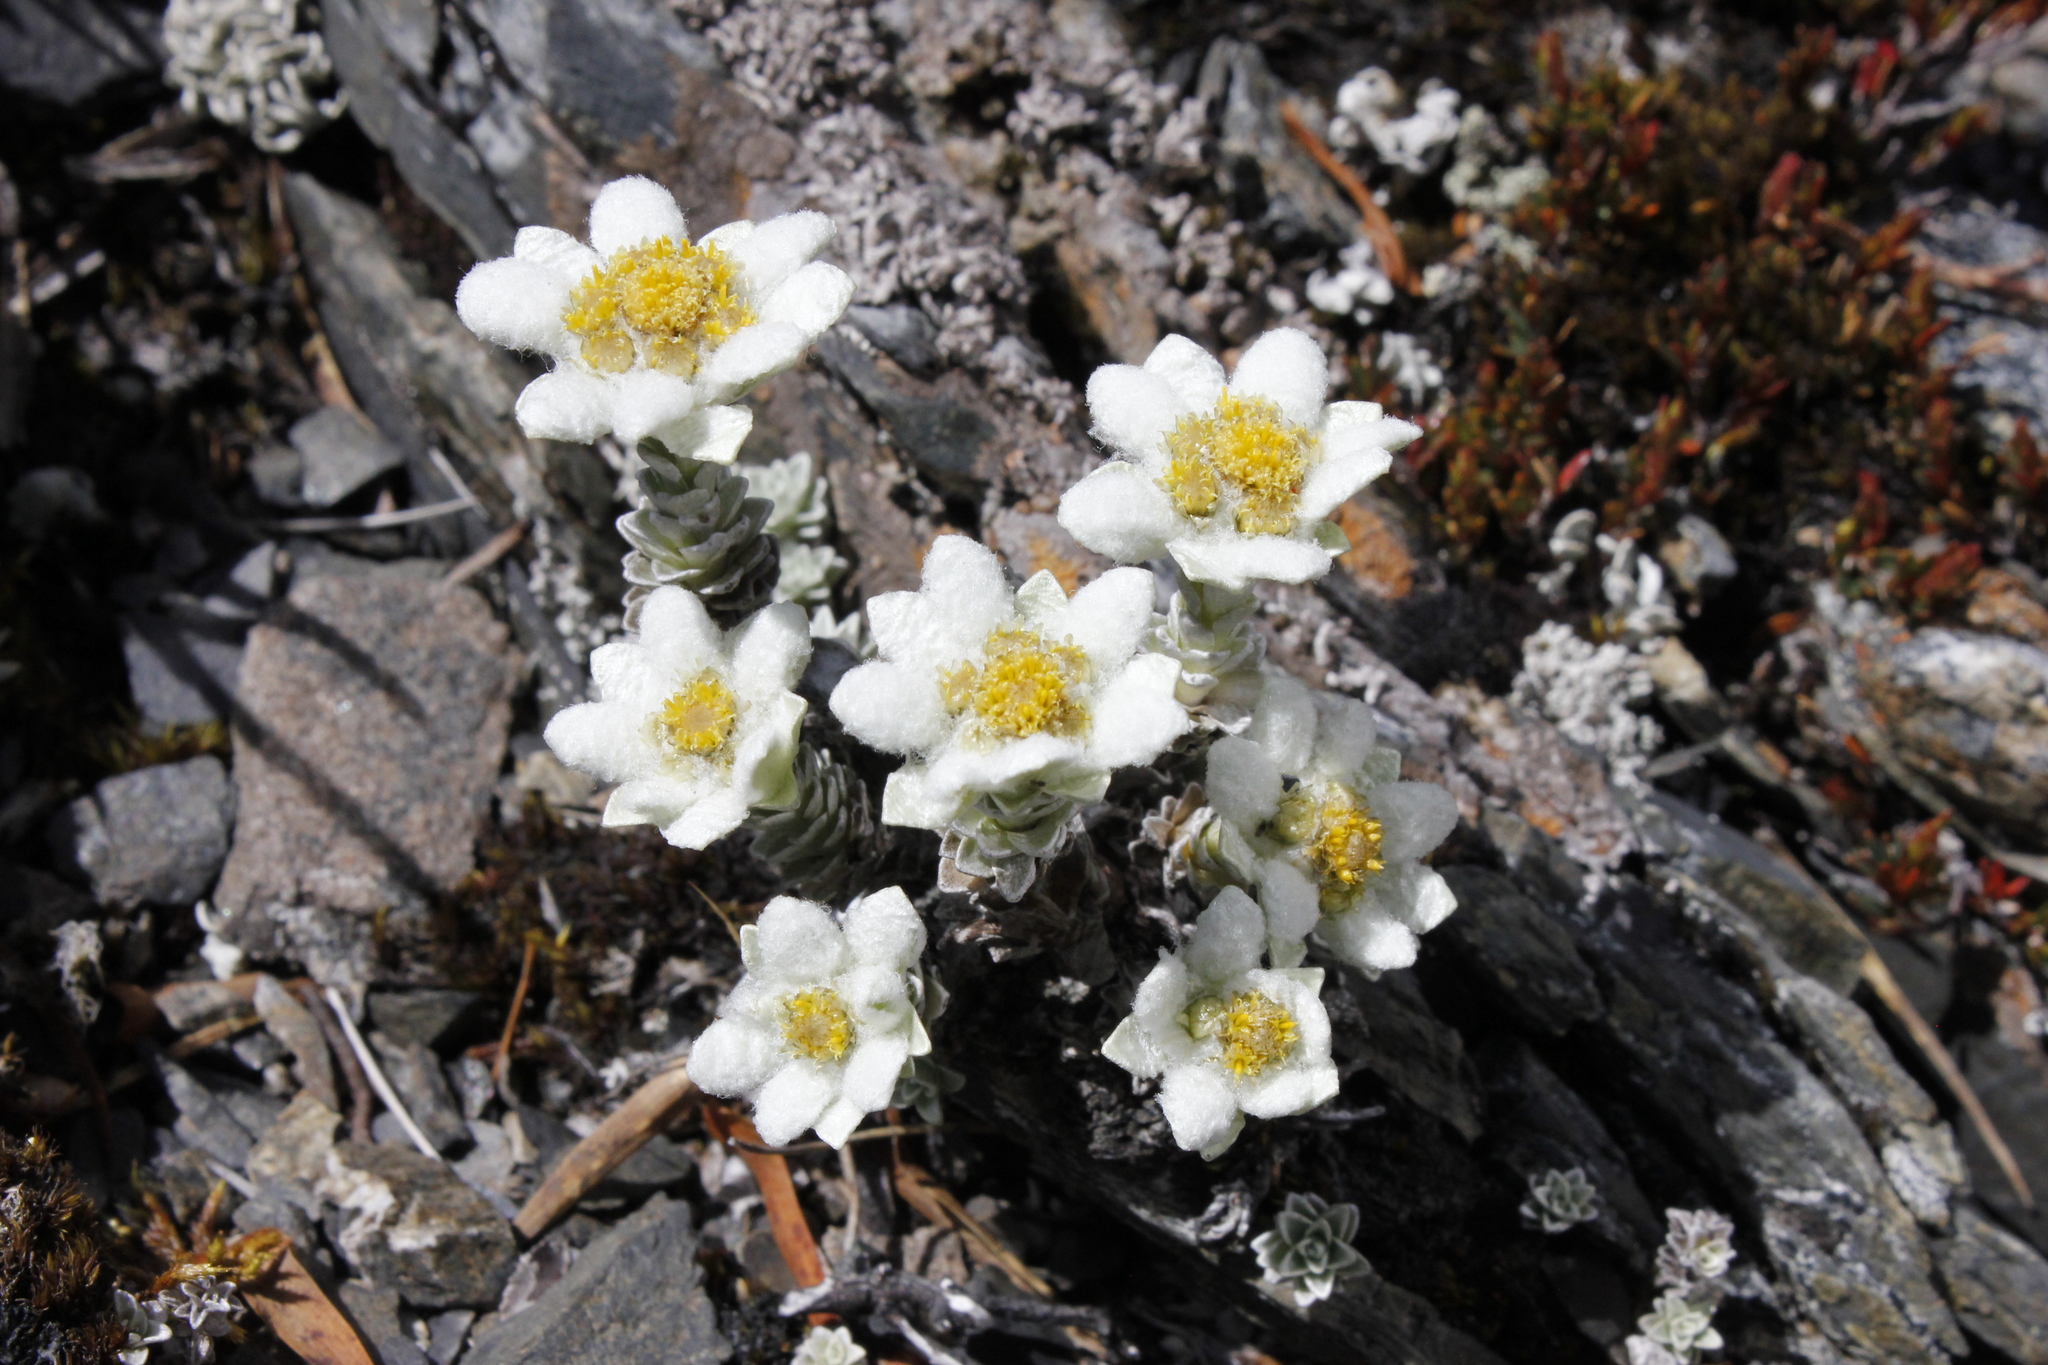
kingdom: Plantae
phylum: Tracheophyta
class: Magnoliopsida
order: Asterales
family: Asteraceae
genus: Leucogenes
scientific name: Leucogenes grandiceps
